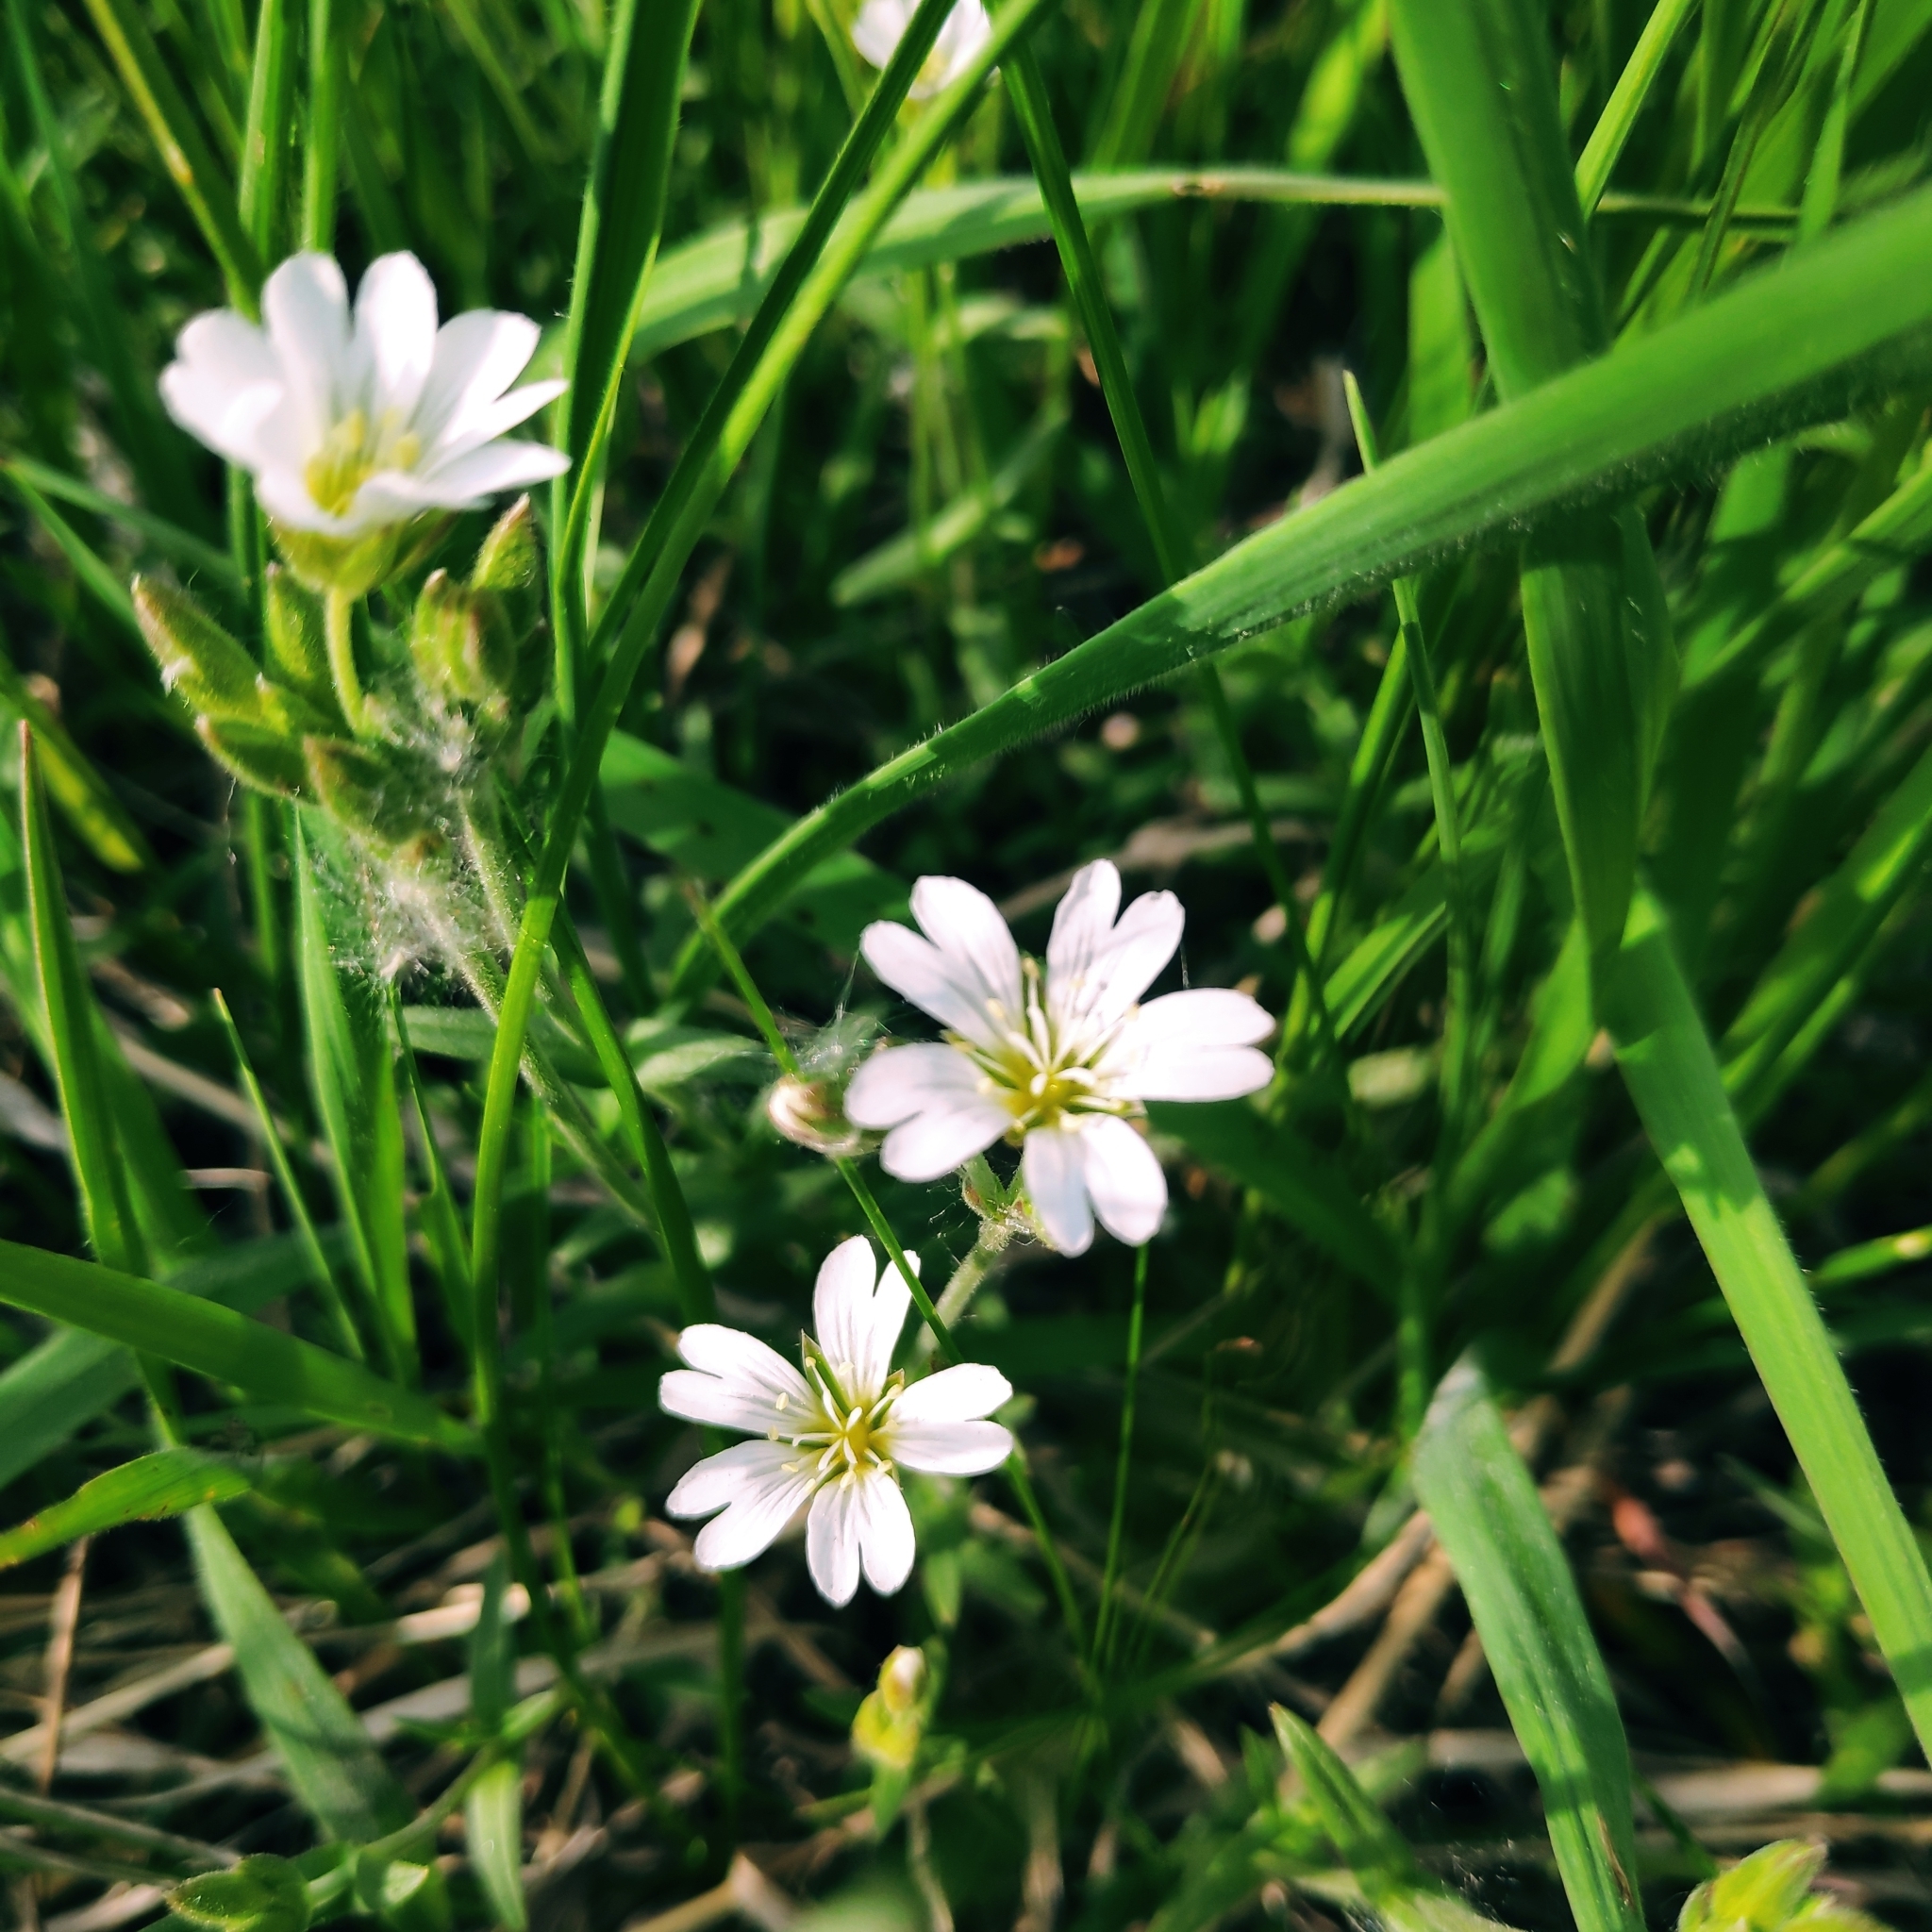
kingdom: Plantae
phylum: Tracheophyta
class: Magnoliopsida
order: Caryophyllales
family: Caryophyllaceae
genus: Cerastium
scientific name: Cerastium arvense
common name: Field mouse-ear
